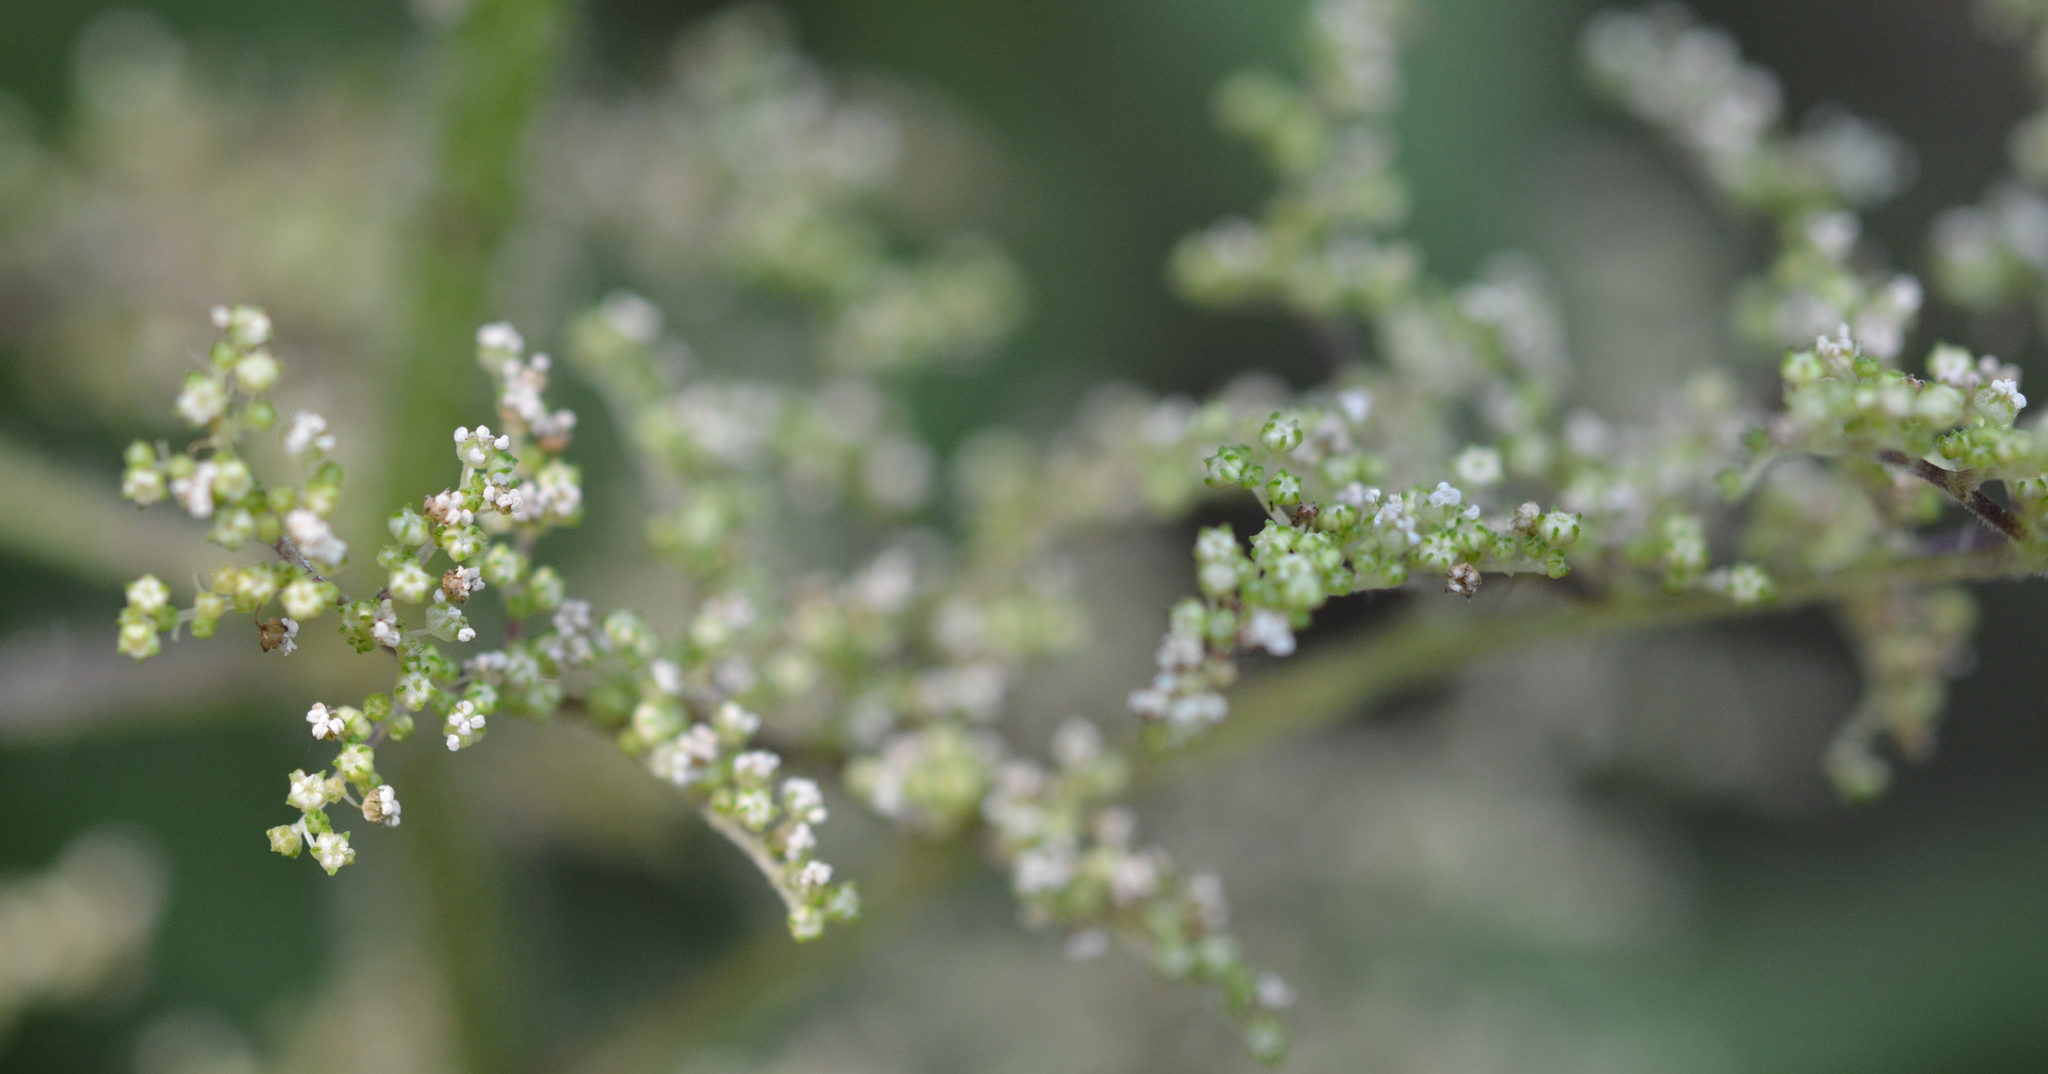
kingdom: Plantae
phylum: Tracheophyta
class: Magnoliopsida
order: Rosales
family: Urticaceae
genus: Laportea
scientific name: Laportea canadensis
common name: Canada nettle
